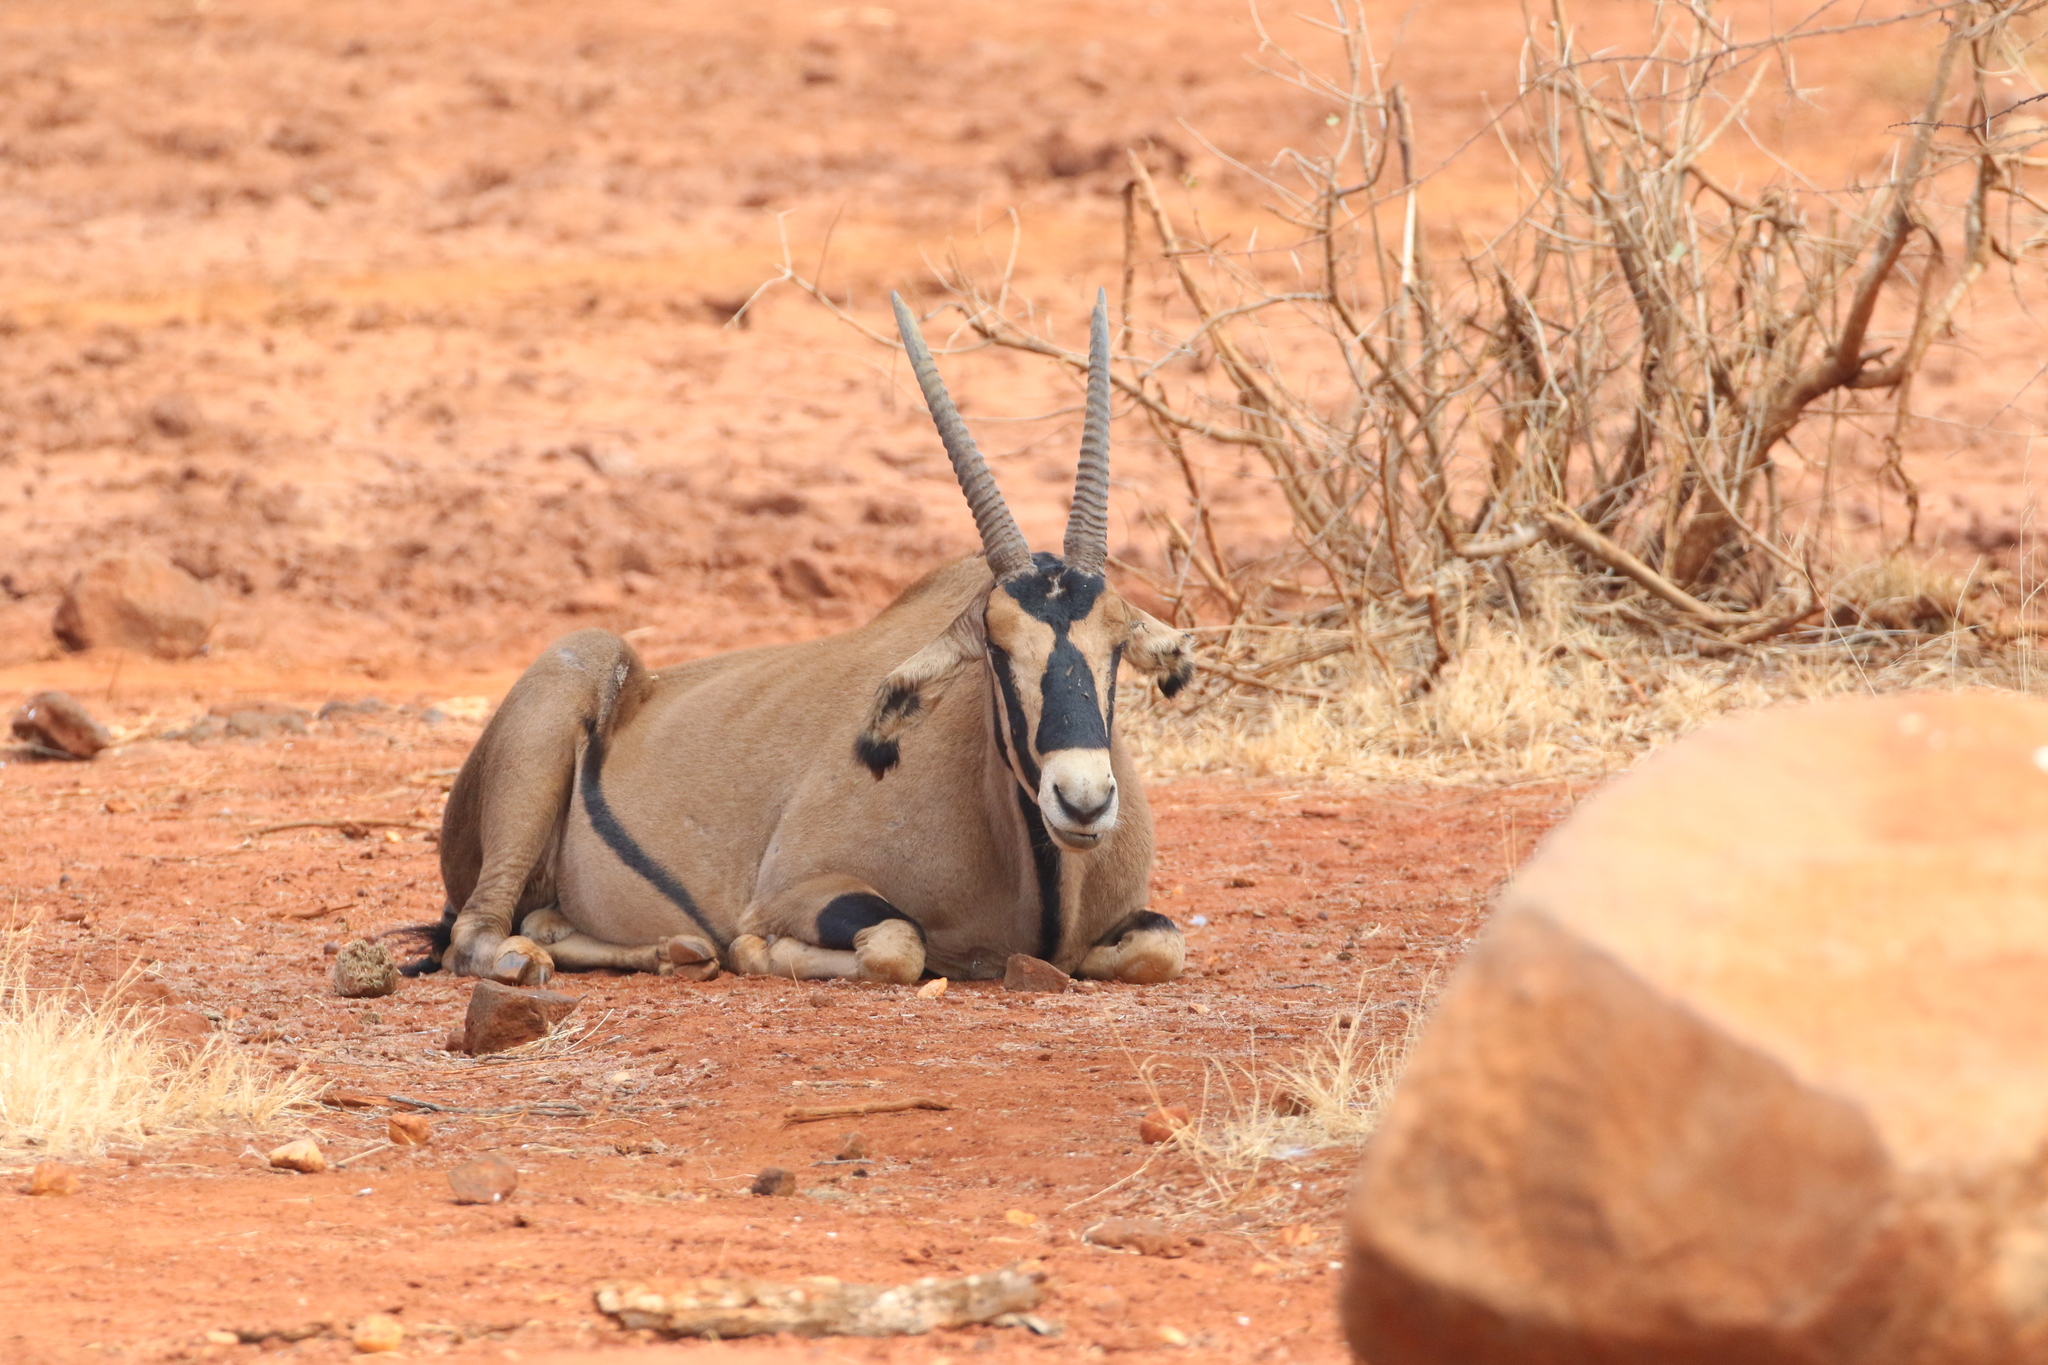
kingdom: Animalia
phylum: Chordata
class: Mammalia
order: Artiodactyla
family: Bovidae
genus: Oryx
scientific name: Oryx beisa
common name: Beisa
